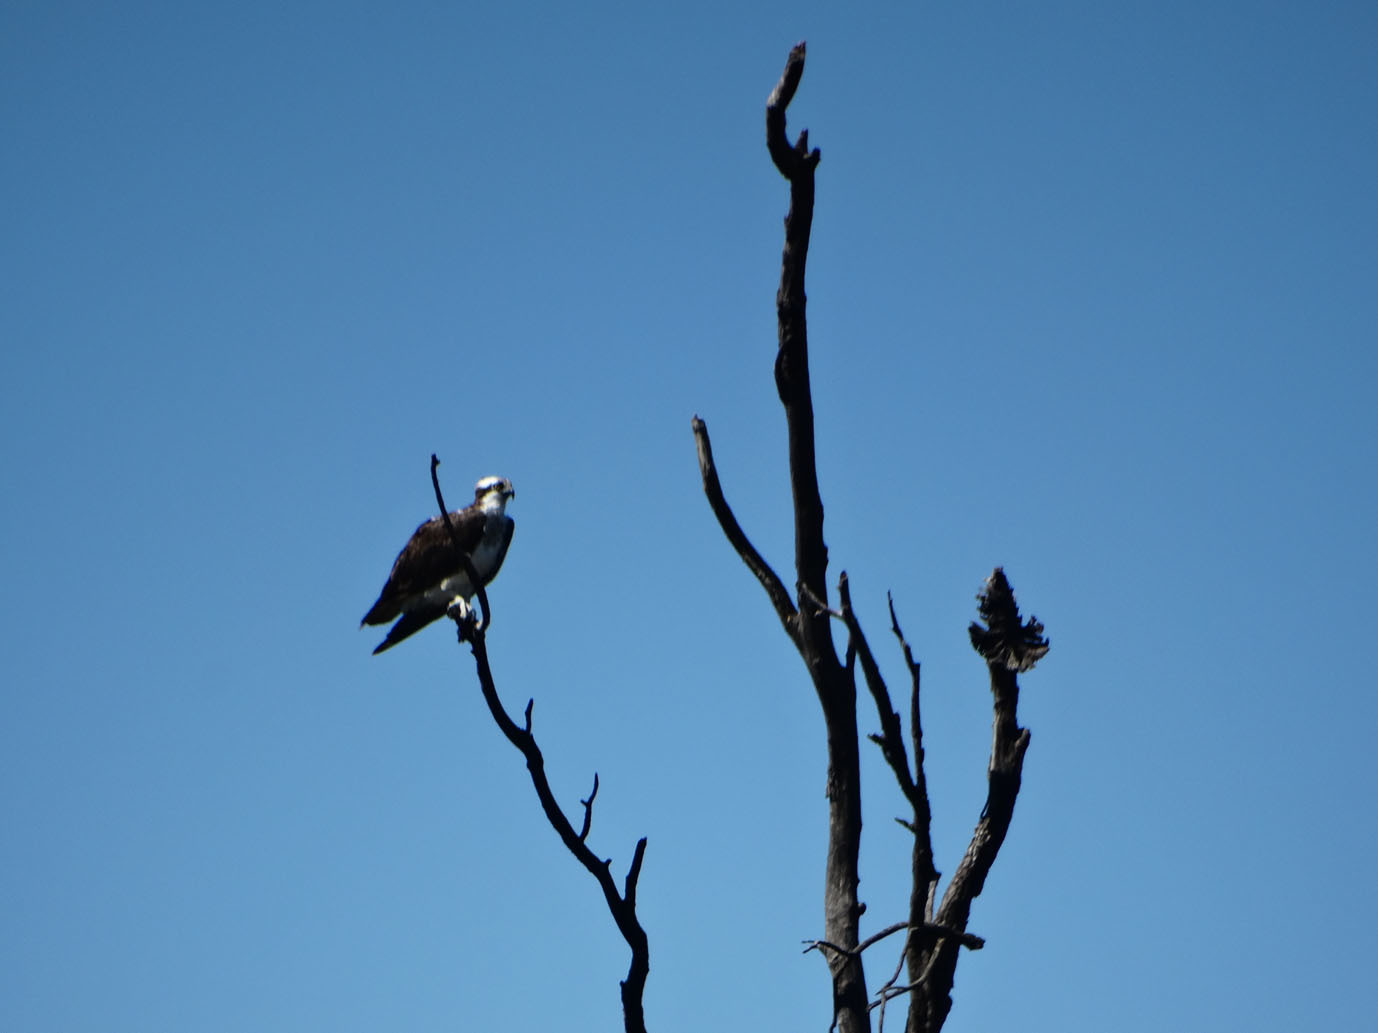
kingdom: Animalia
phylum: Chordata
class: Aves
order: Accipitriformes
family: Pandionidae
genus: Pandion
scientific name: Pandion haliaetus
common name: Osprey
